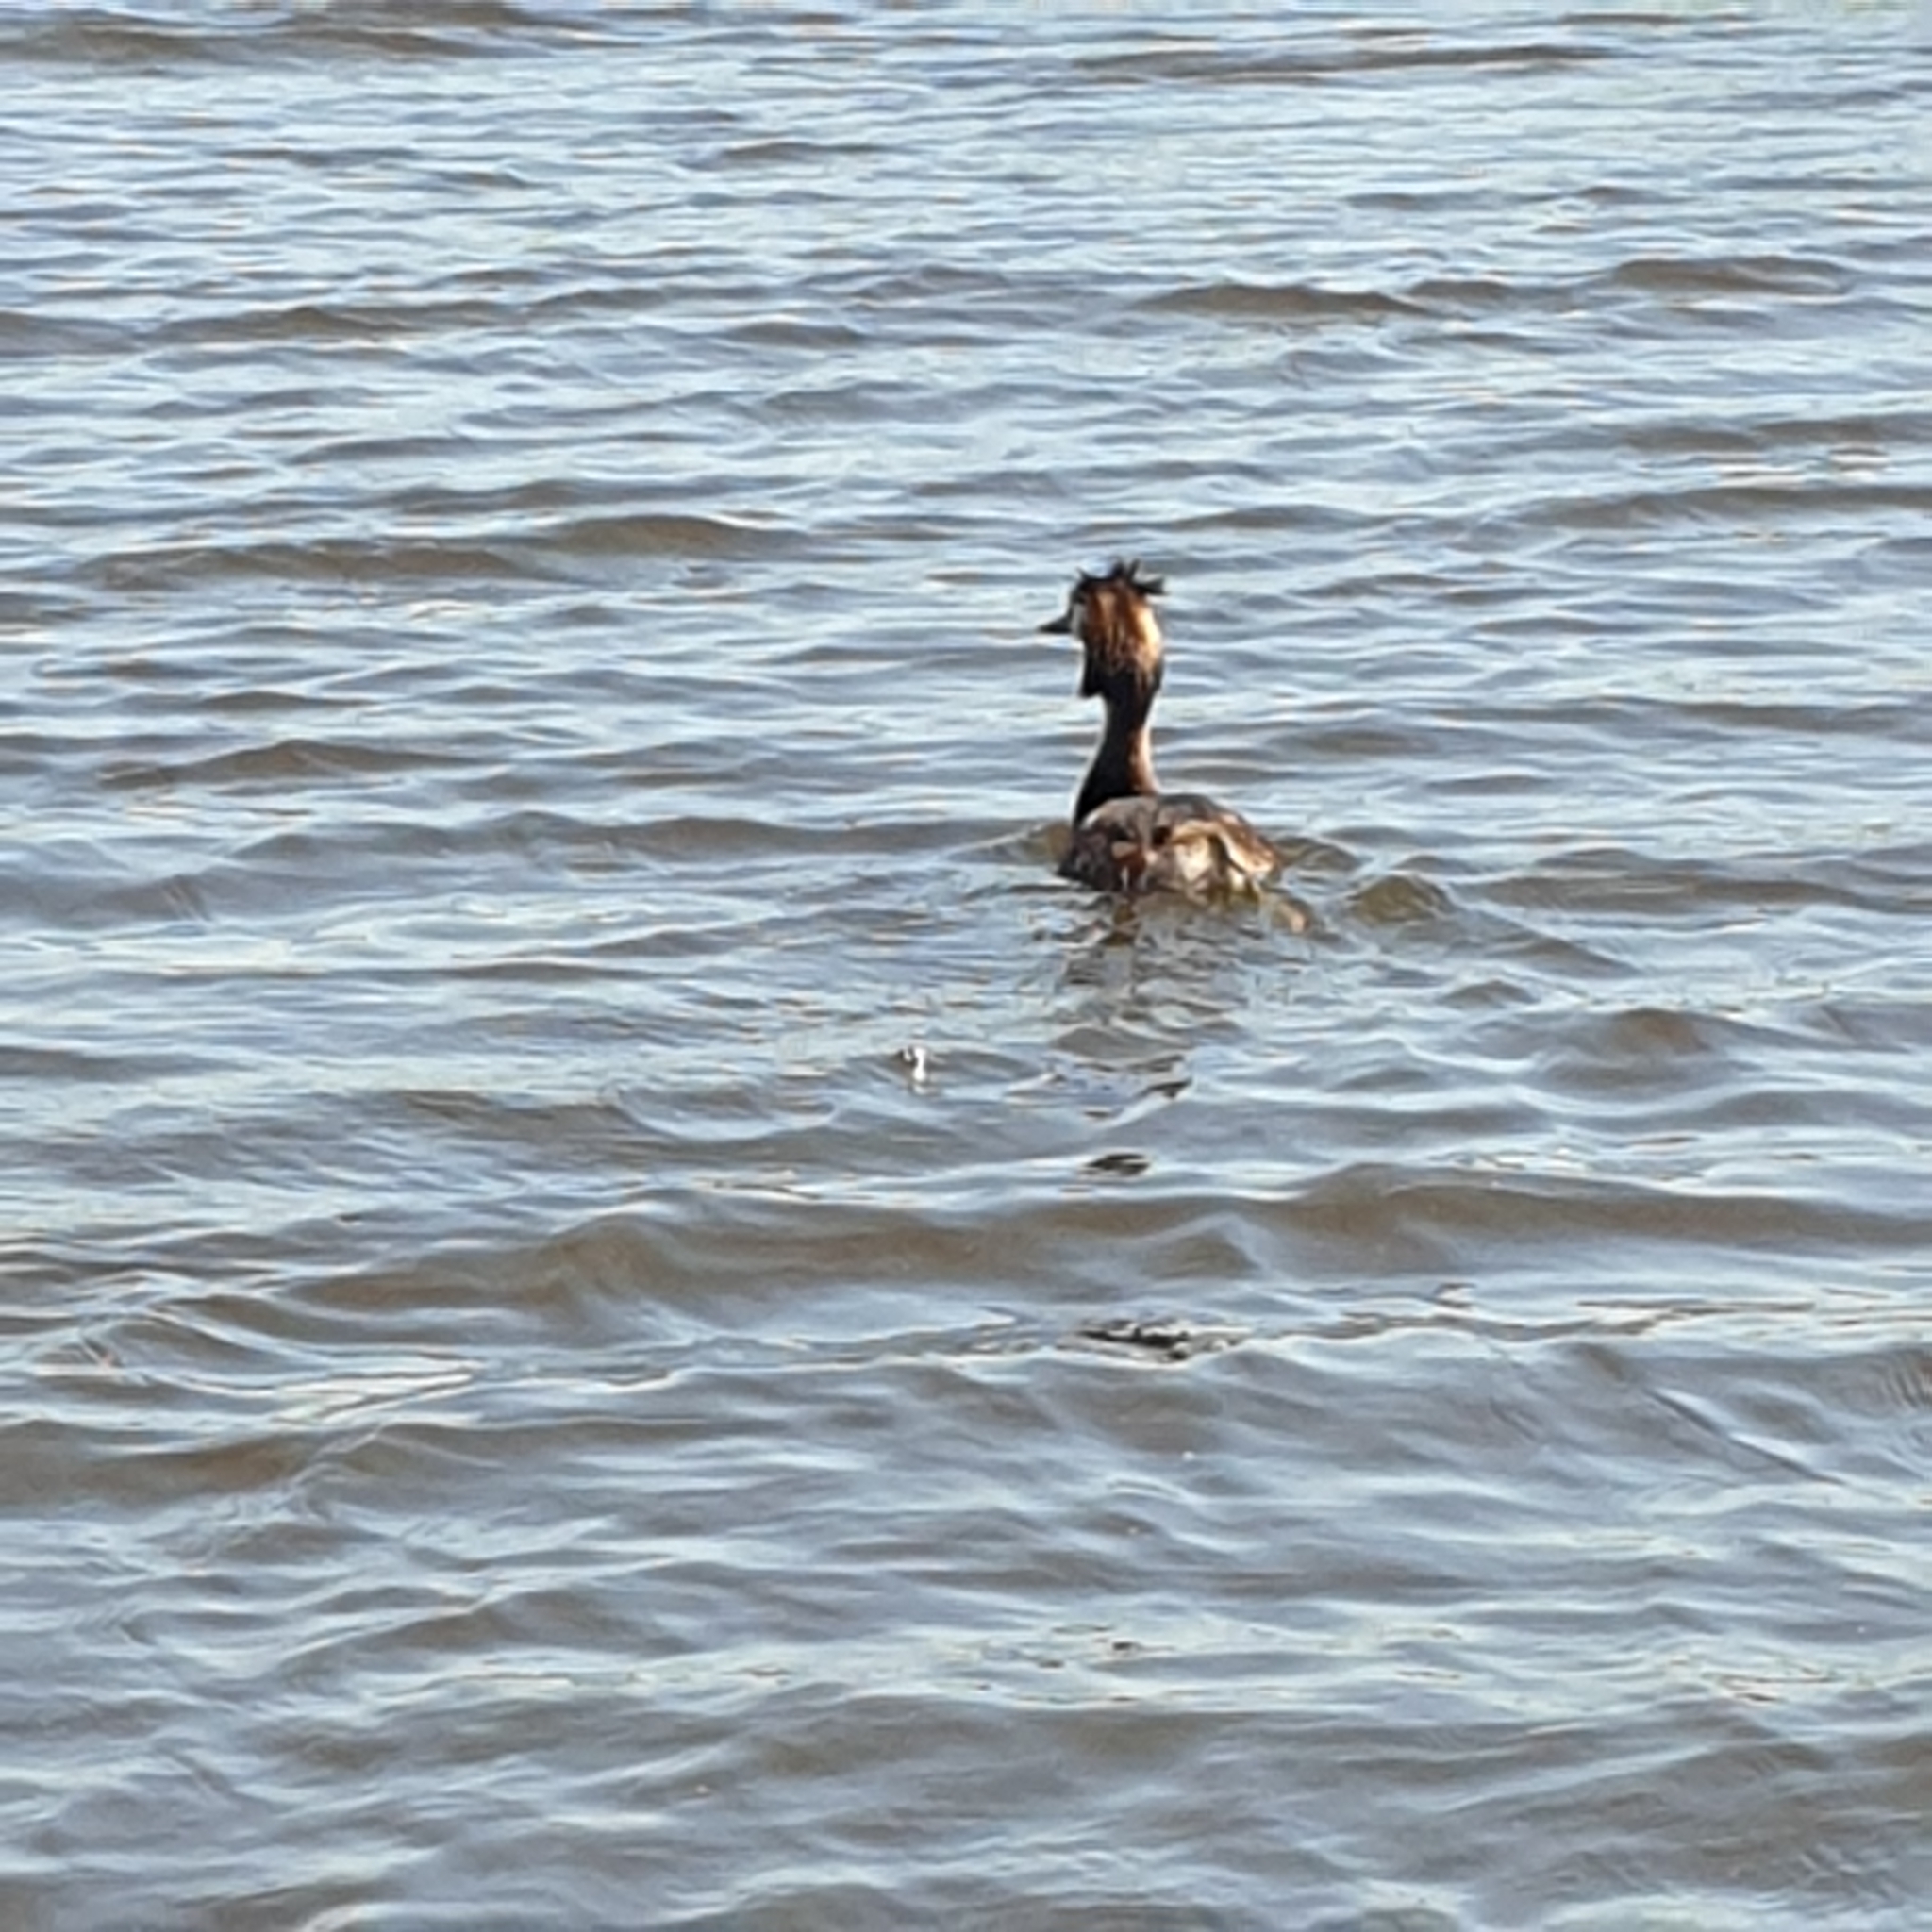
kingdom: Animalia
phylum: Chordata
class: Aves
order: Podicipediformes
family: Podicipedidae
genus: Podiceps
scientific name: Podiceps cristatus
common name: Great crested grebe
